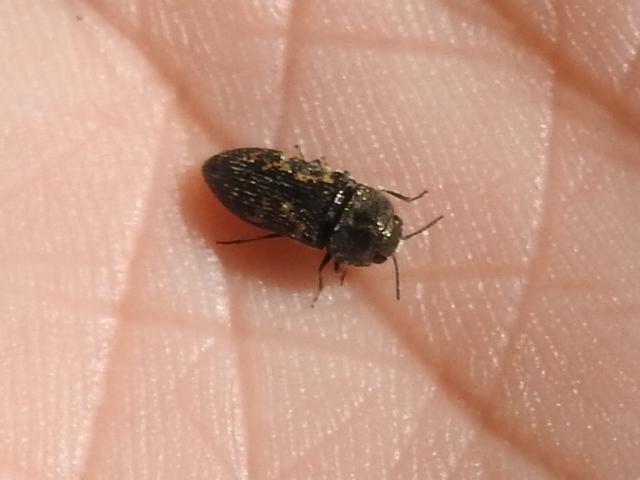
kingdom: Animalia
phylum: Arthropoda
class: Insecta
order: Coleoptera
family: Buprestidae
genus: Acmaeodera
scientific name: Acmaeodera neglecta
